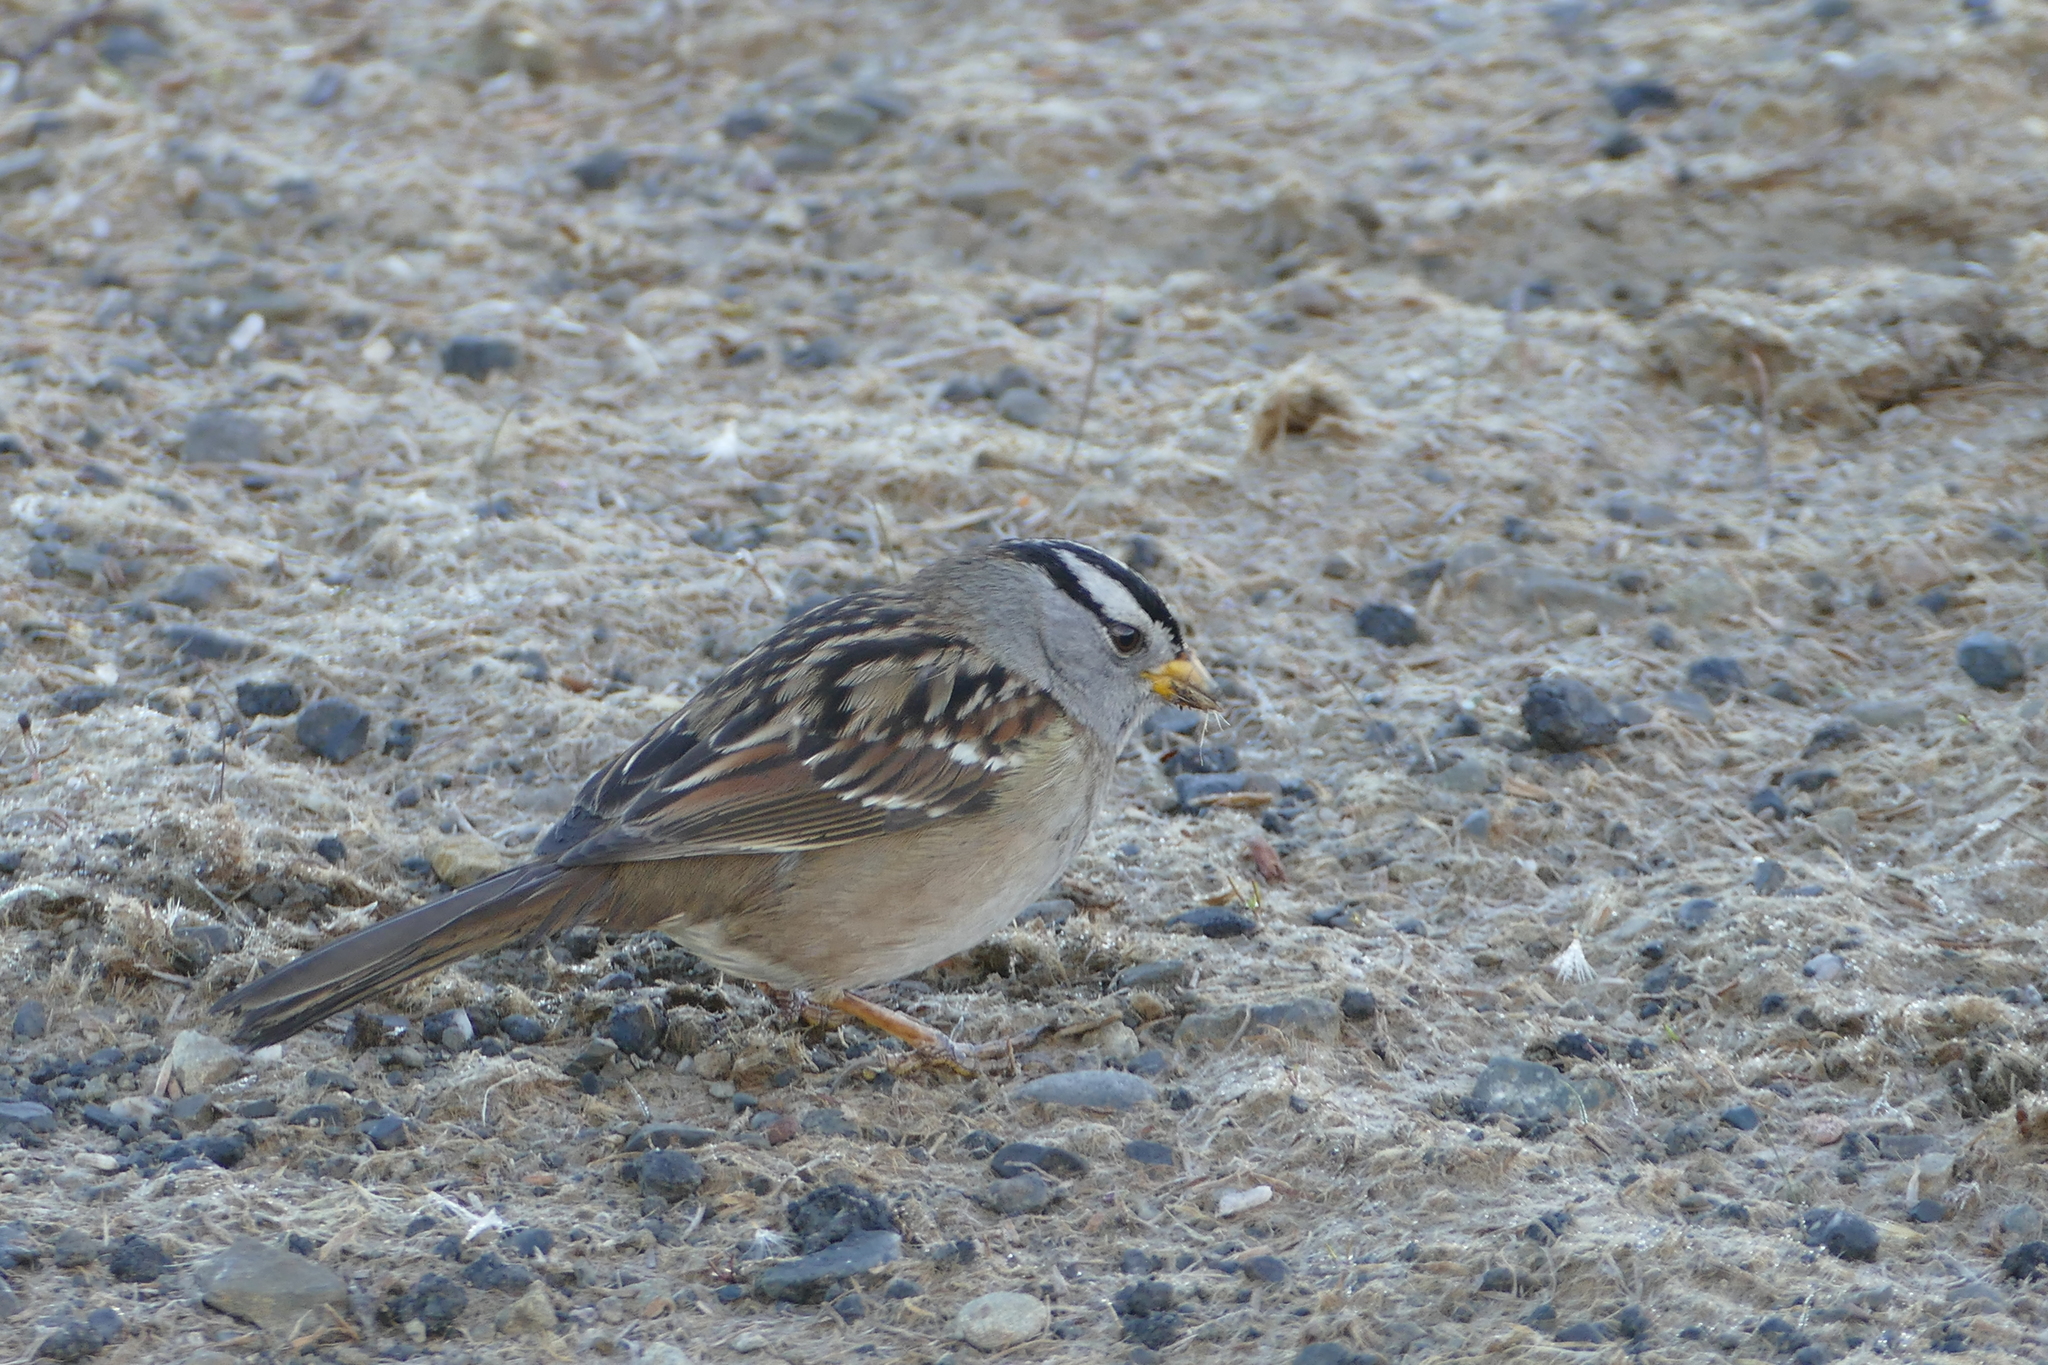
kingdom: Animalia
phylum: Chordata
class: Aves
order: Passeriformes
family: Passerellidae
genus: Zonotrichia
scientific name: Zonotrichia leucophrys
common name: White-crowned sparrow
